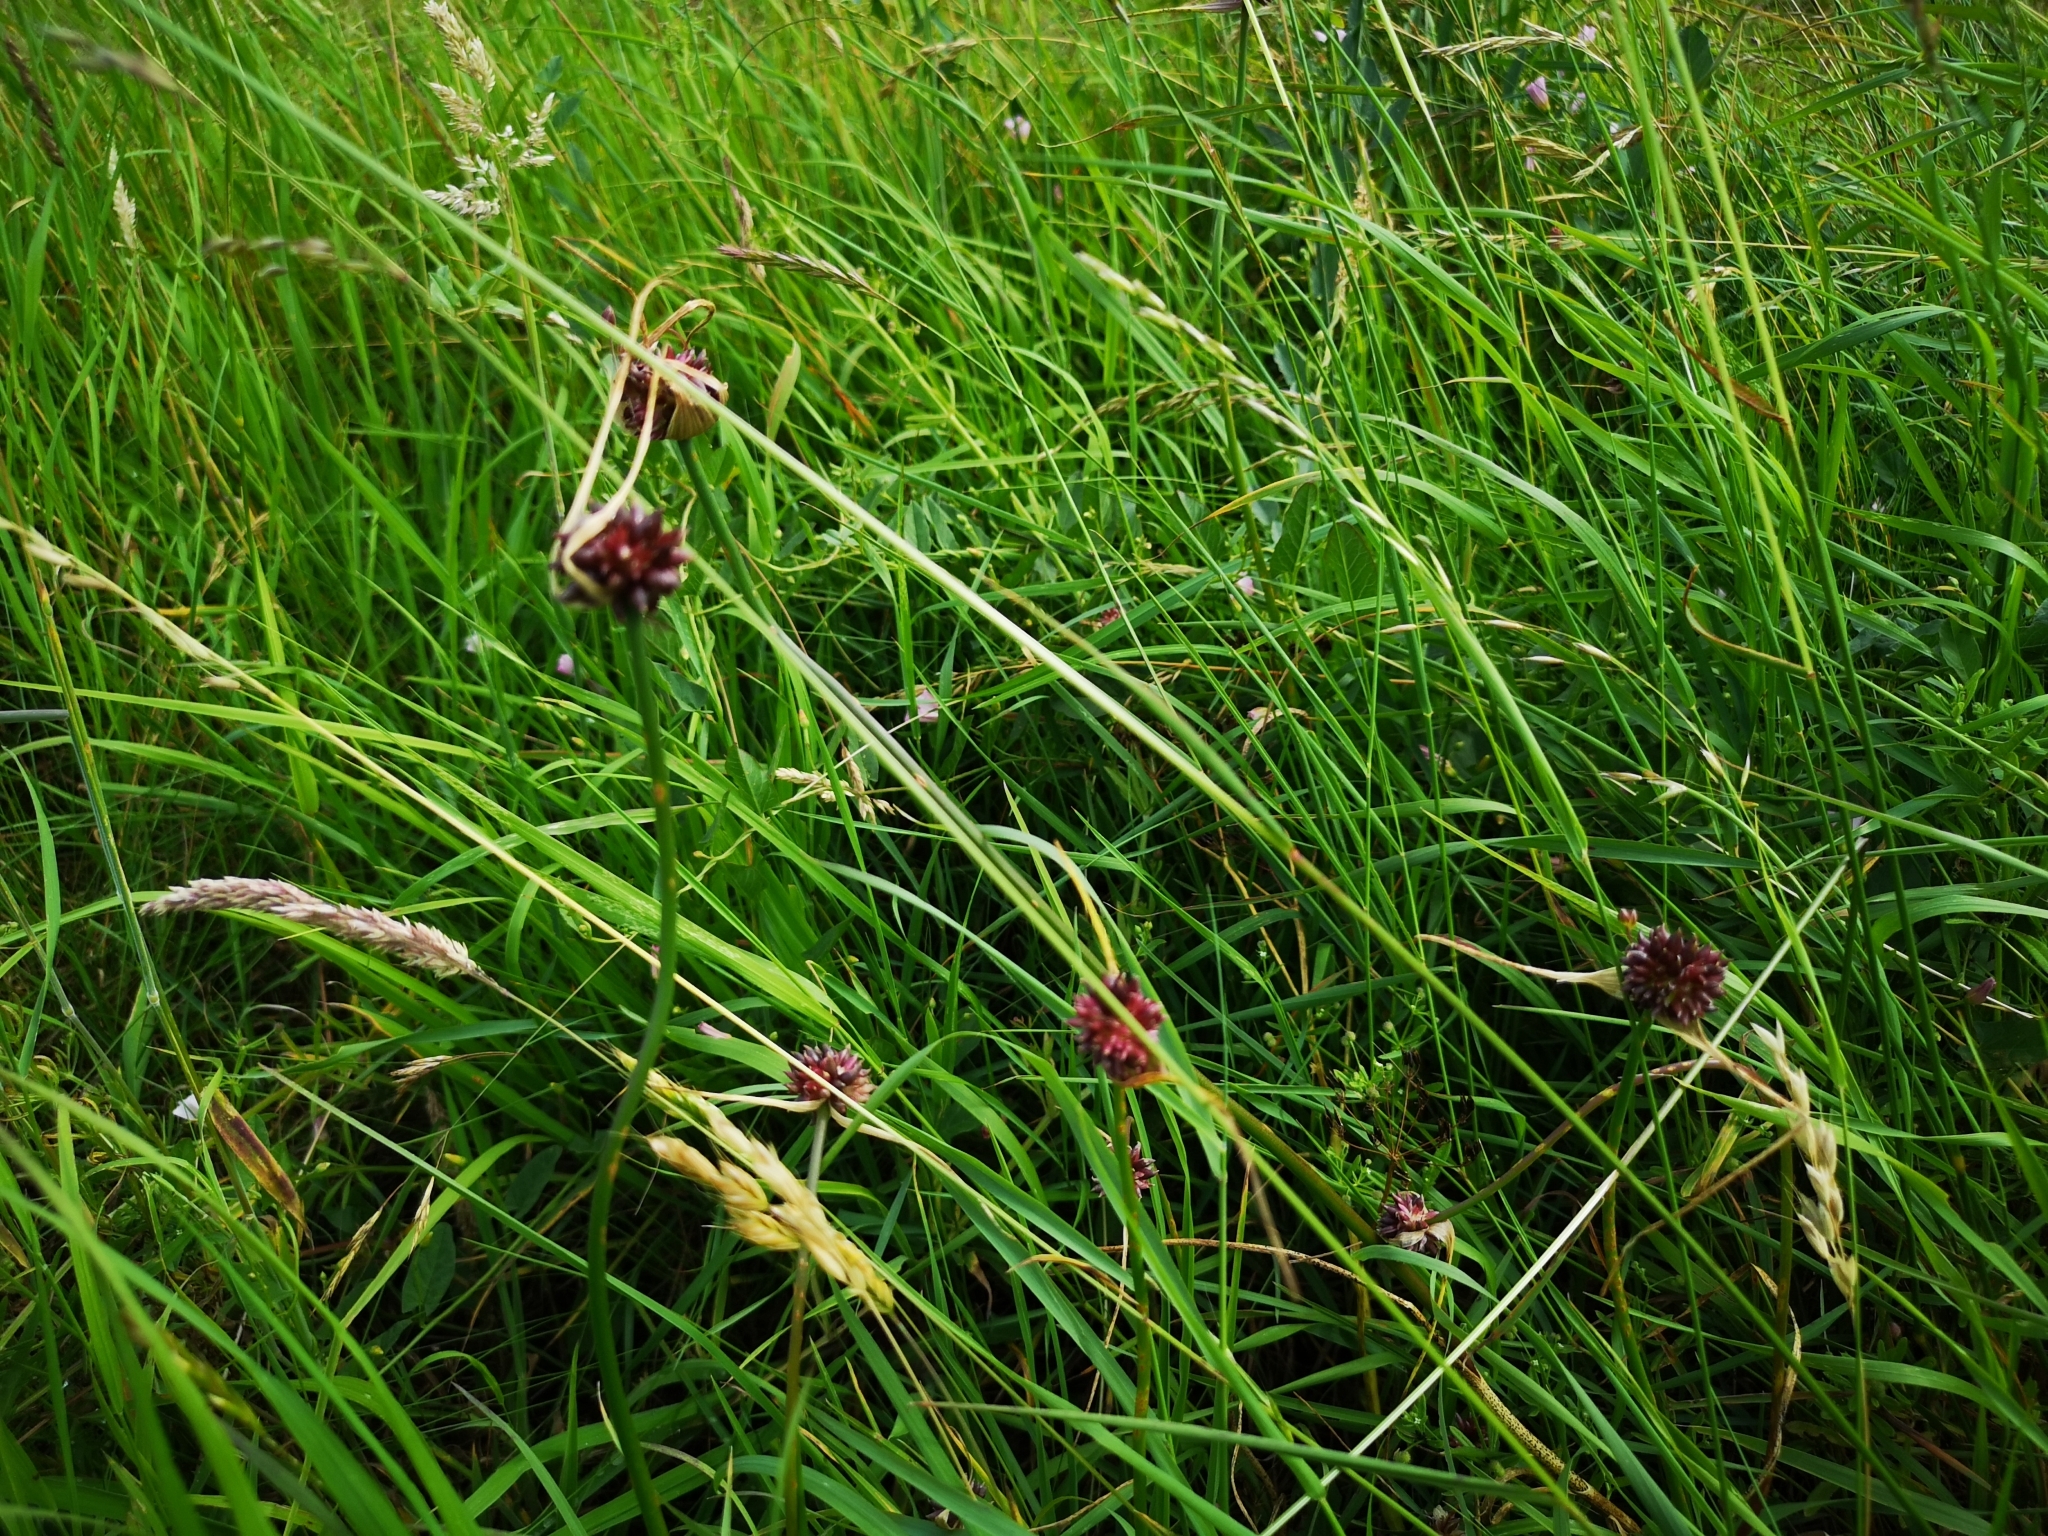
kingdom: Plantae
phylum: Tracheophyta
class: Liliopsida
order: Asparagales
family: Amaryllidaceae
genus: Allium
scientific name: Allium oleraceum
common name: Field garlic
